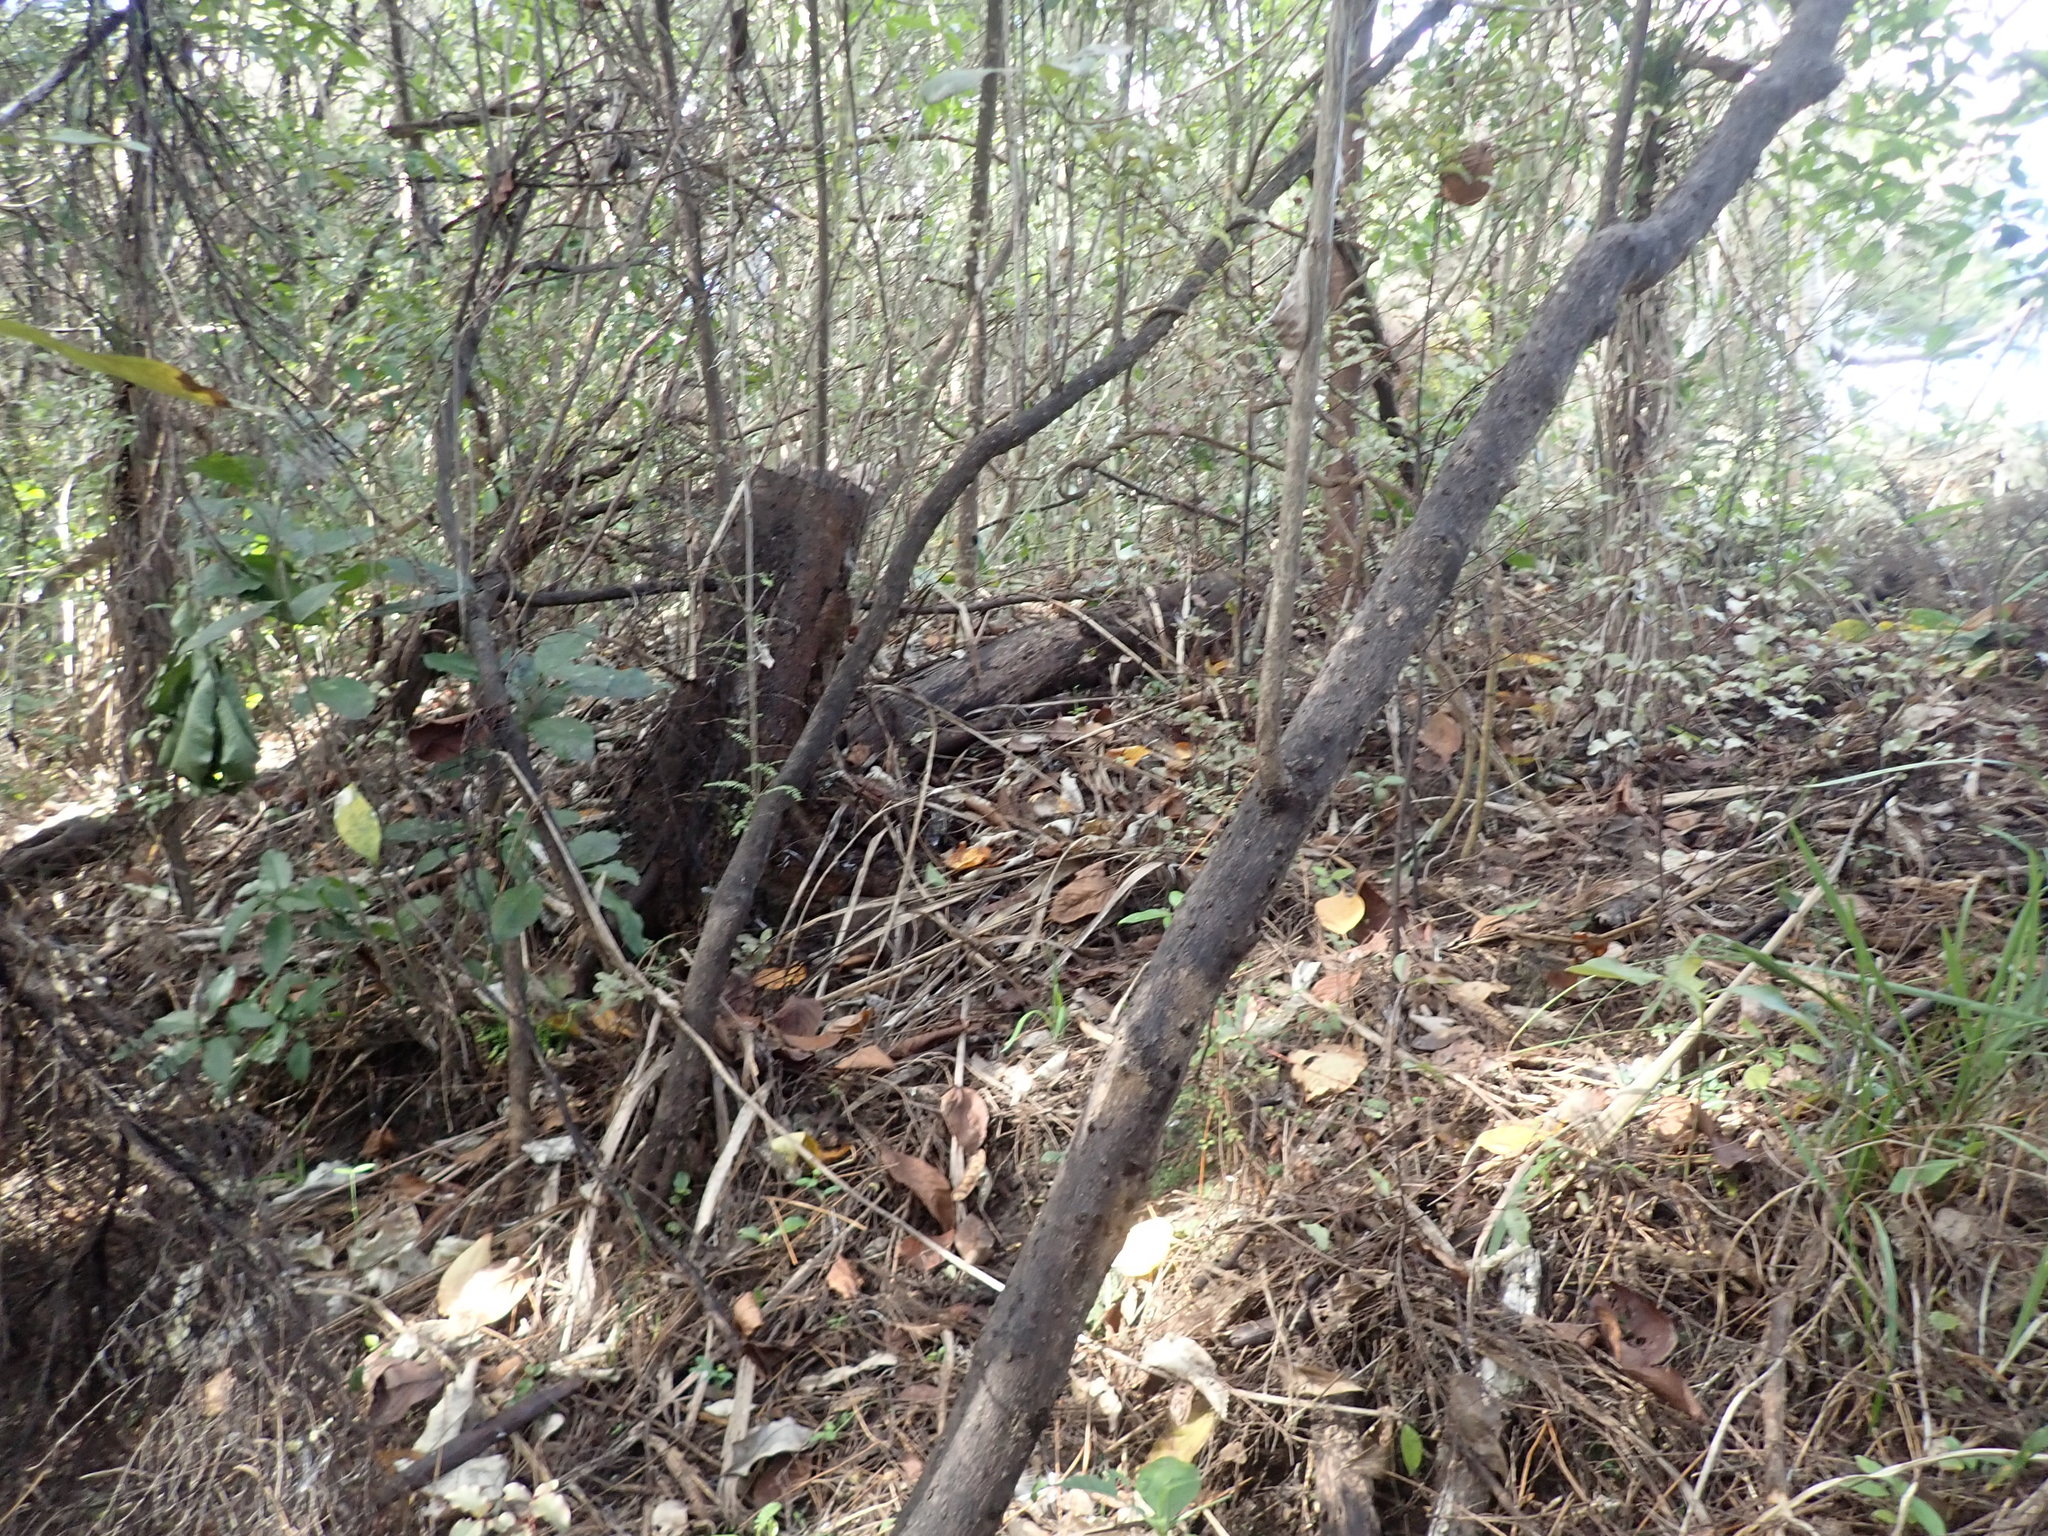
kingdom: Plantae
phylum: Tracheophyta
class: Liliopsida
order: Asparagales
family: Asparagaceae
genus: Asparagus
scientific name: Asparagus scandens
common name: Asparagus-fern
